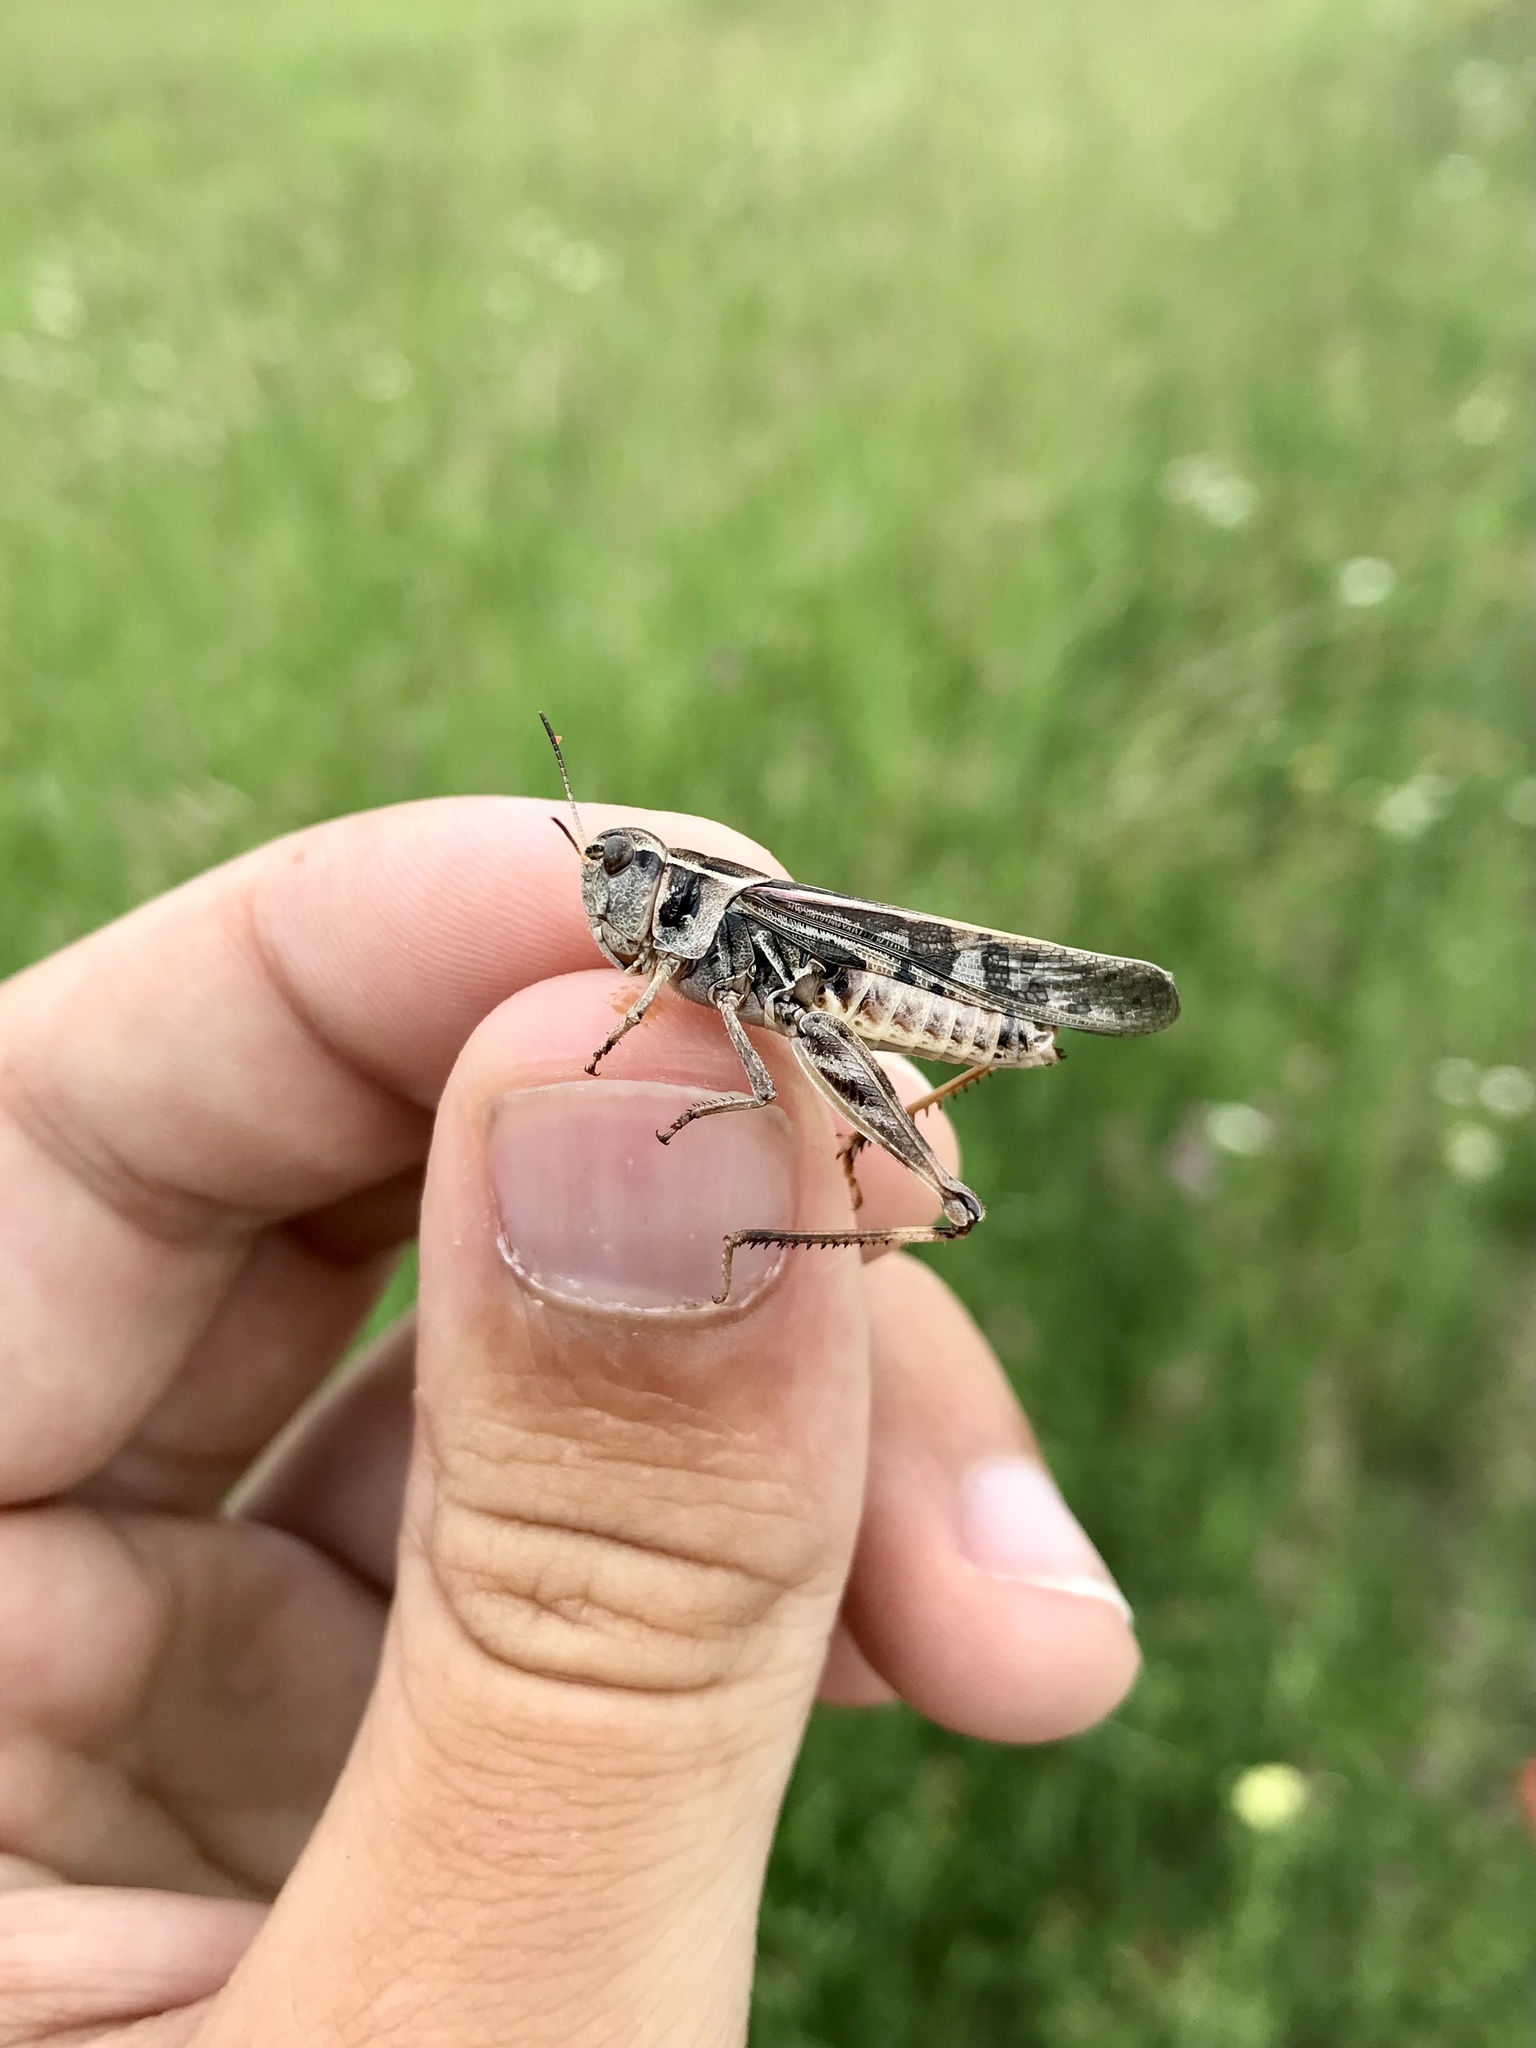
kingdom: Animalia
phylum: Arthropoda
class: Insecta
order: Orthoptera
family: Acrididae
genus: Camnula
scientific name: Camnula pellucida
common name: Clear-winged grasshopper
